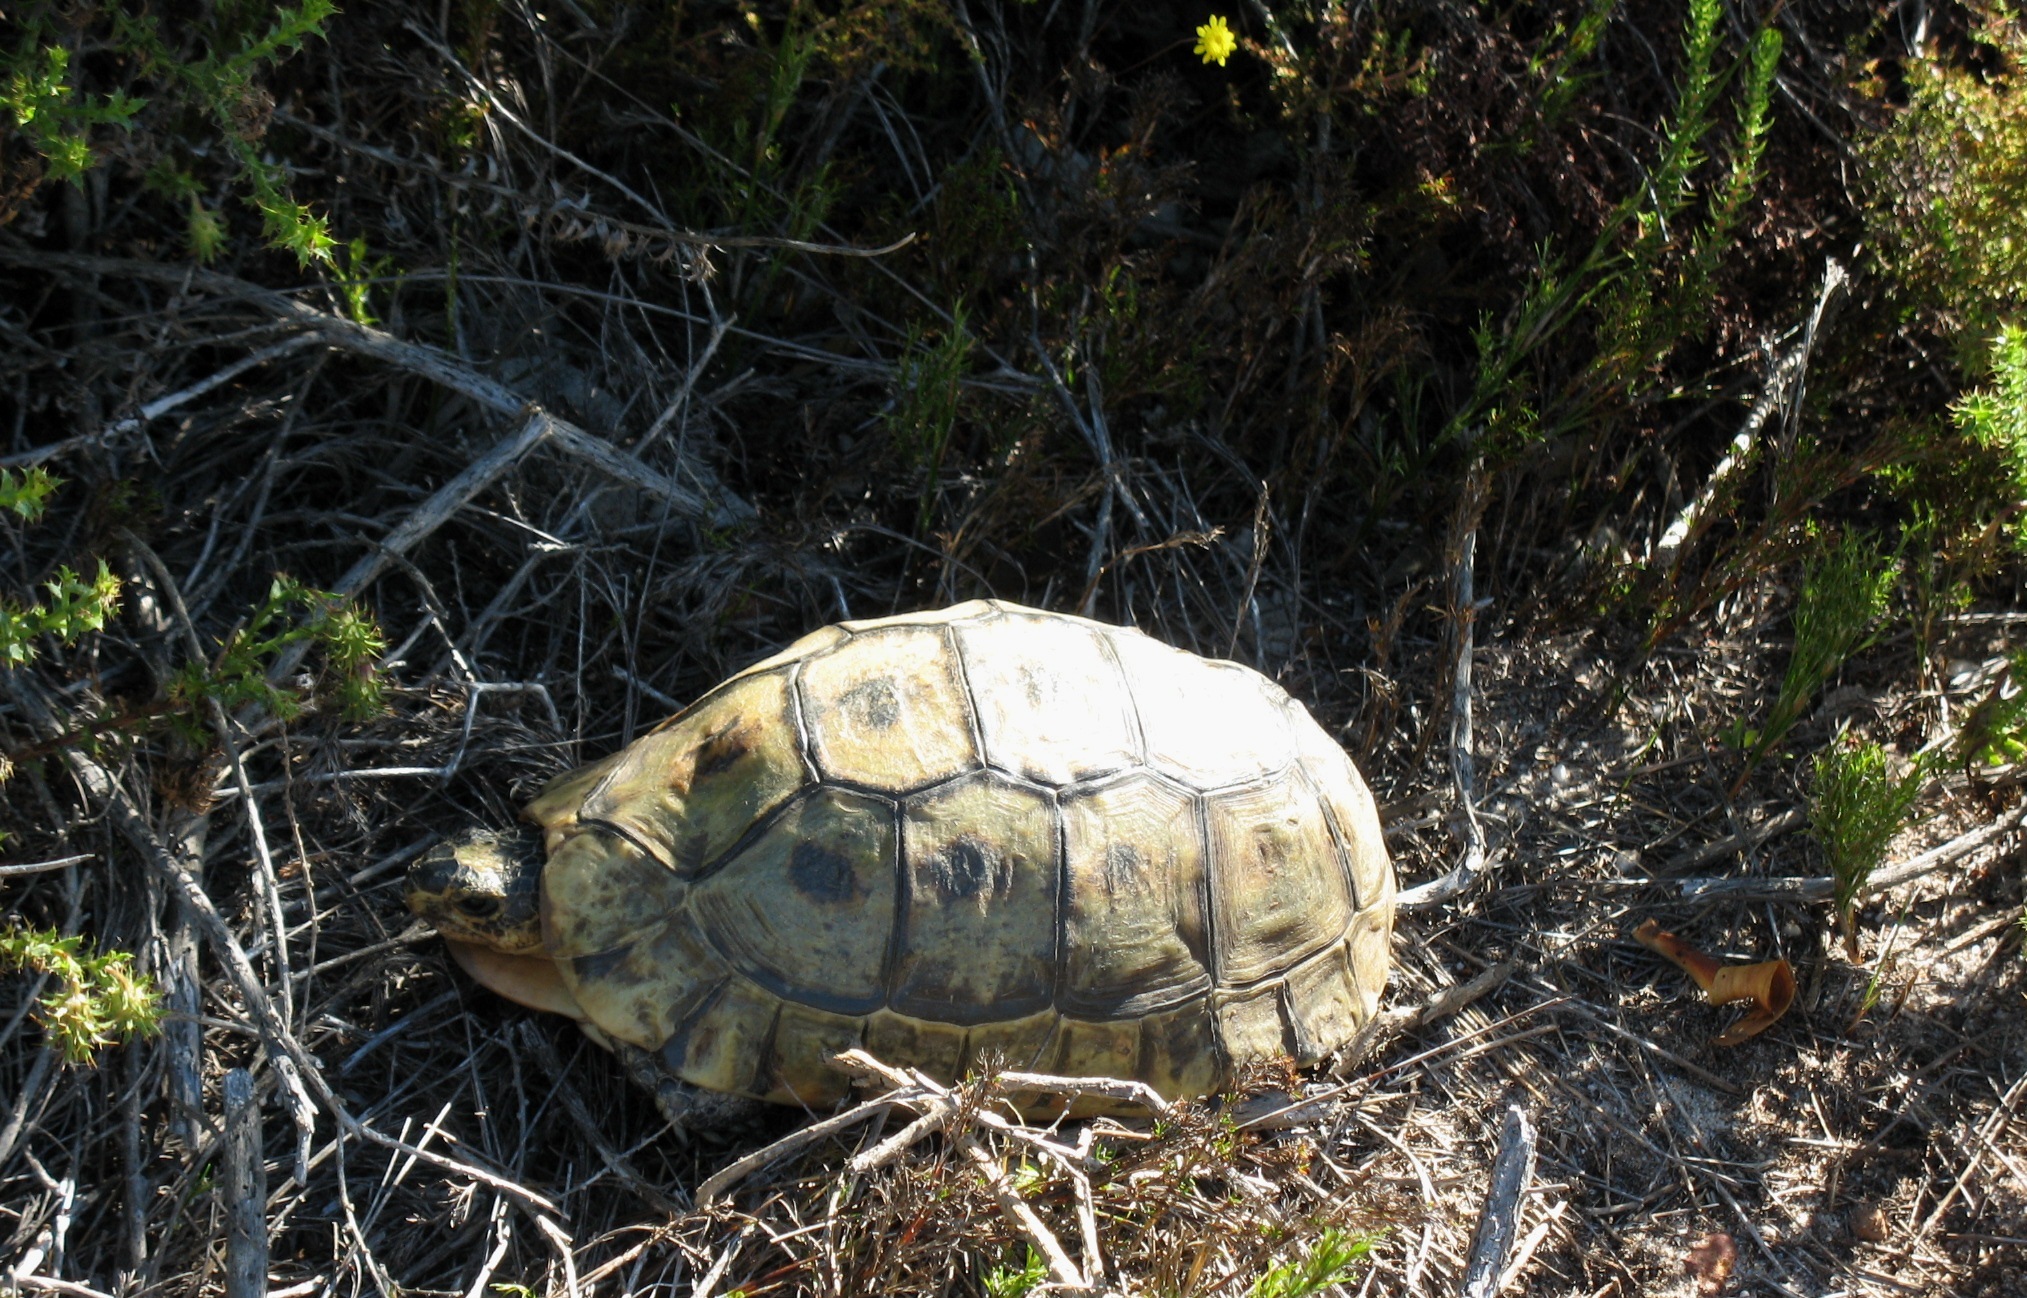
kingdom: Animalia
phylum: Chordata
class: Testudines
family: Testudinidae
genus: Chersina
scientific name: Chersina angulata
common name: South african bowsprit tortoise
